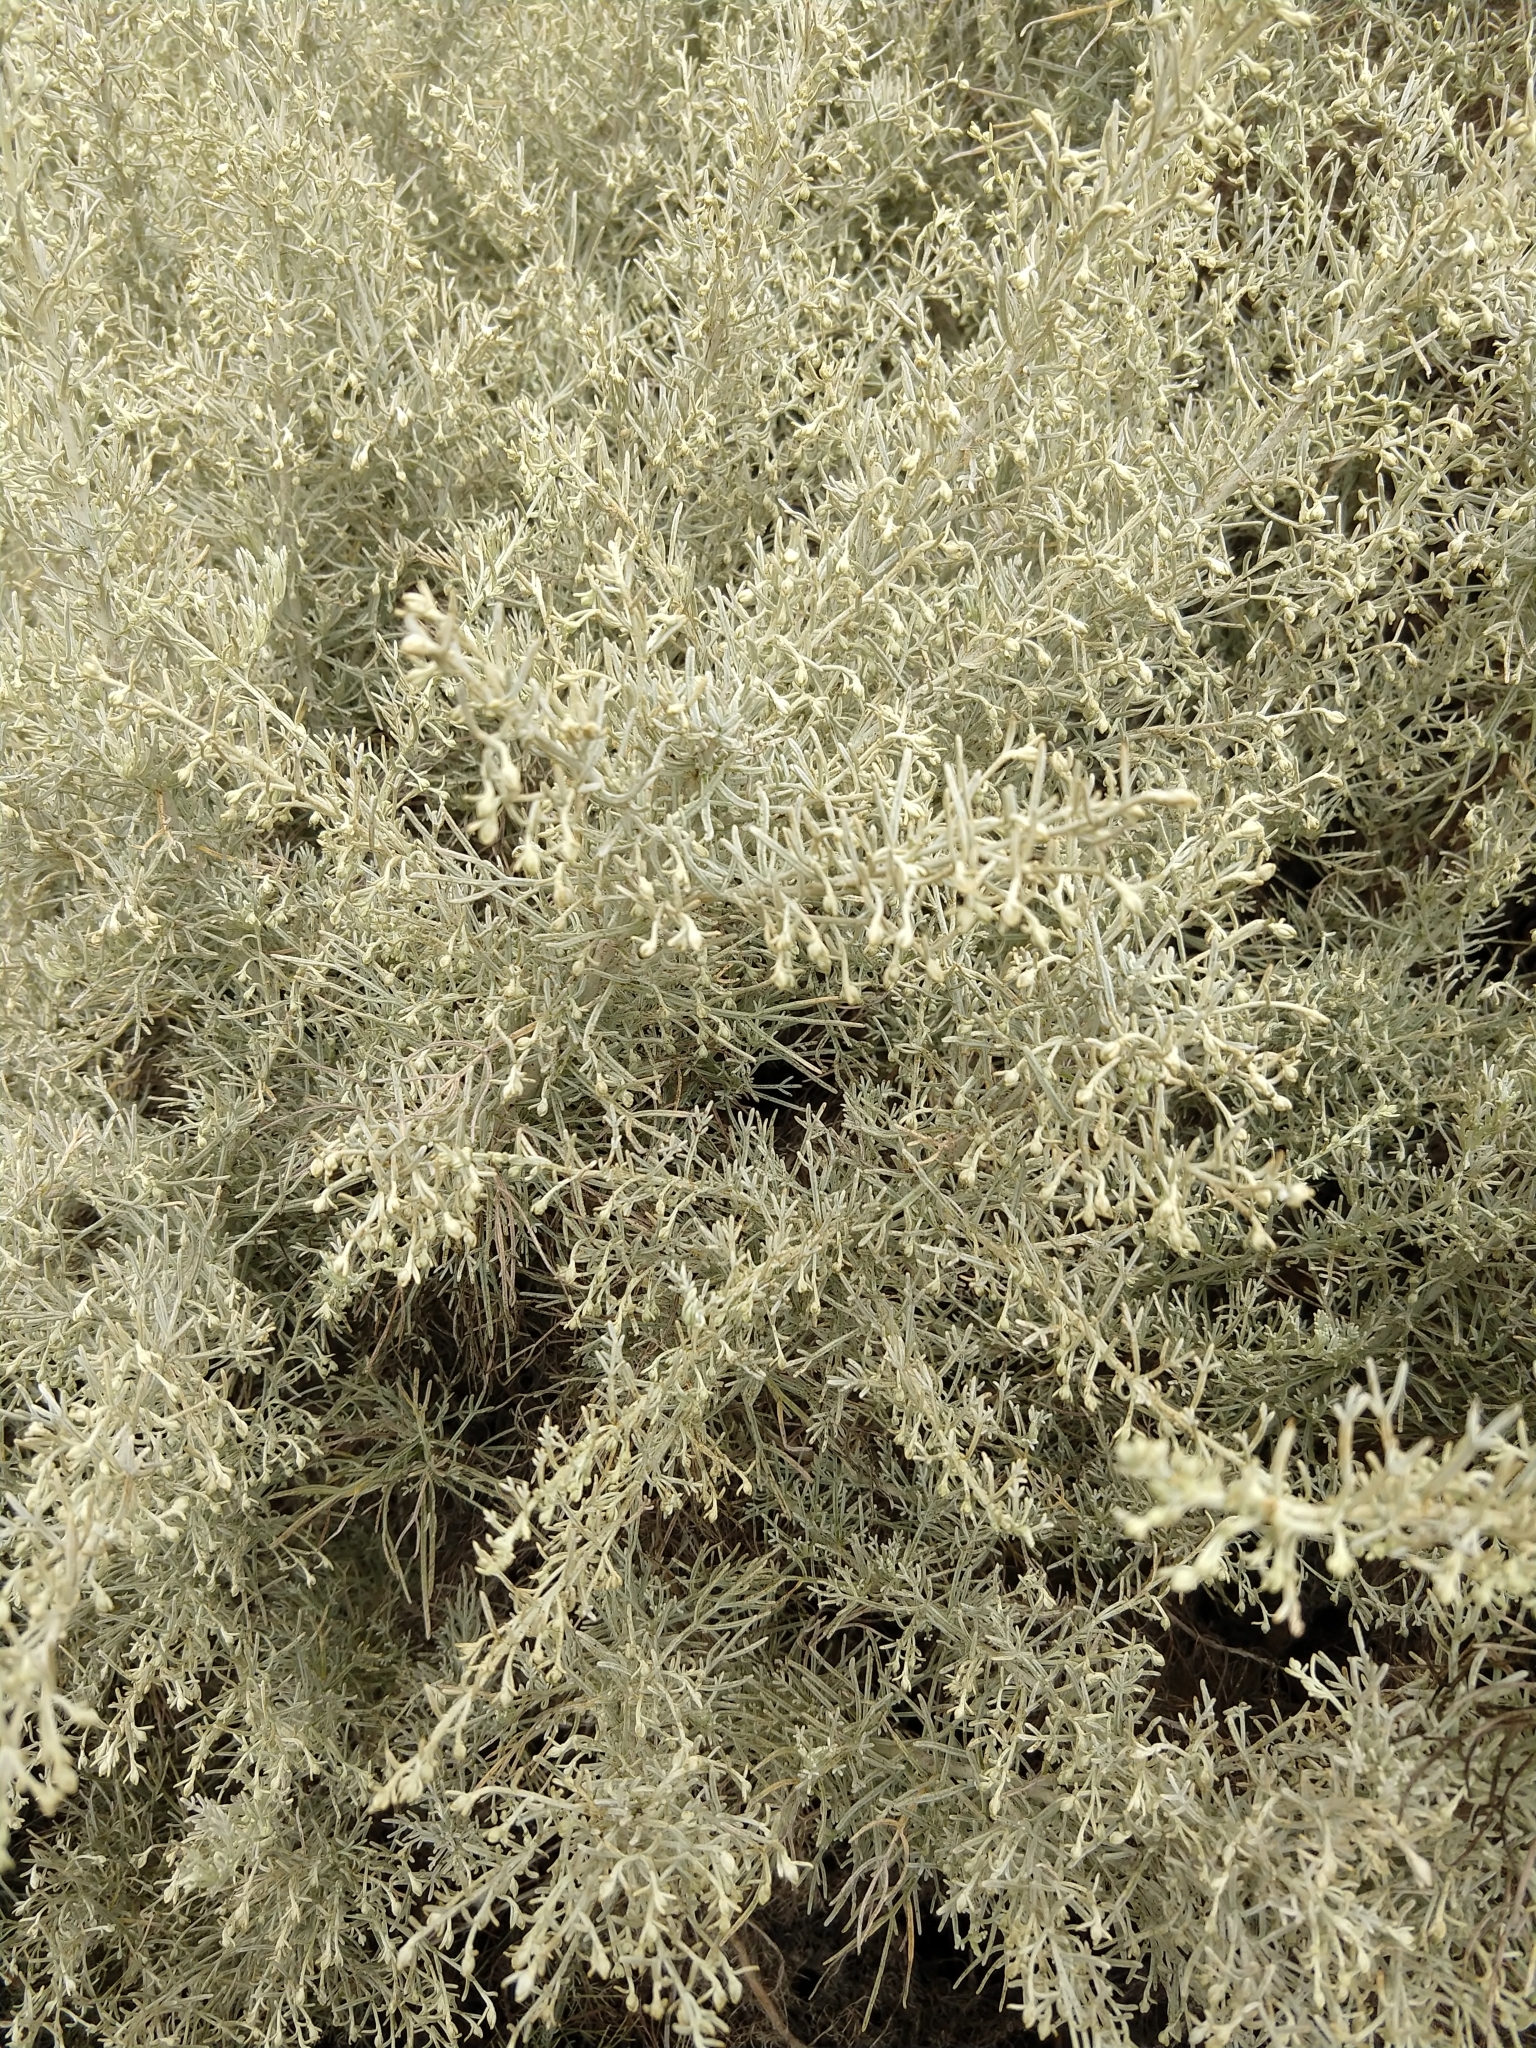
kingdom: Plantae
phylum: Tracheophyta
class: Magnoliopsida
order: Asterales
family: Asteraceae
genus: Artemisia
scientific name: Artemisia californica
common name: California sagebrush
